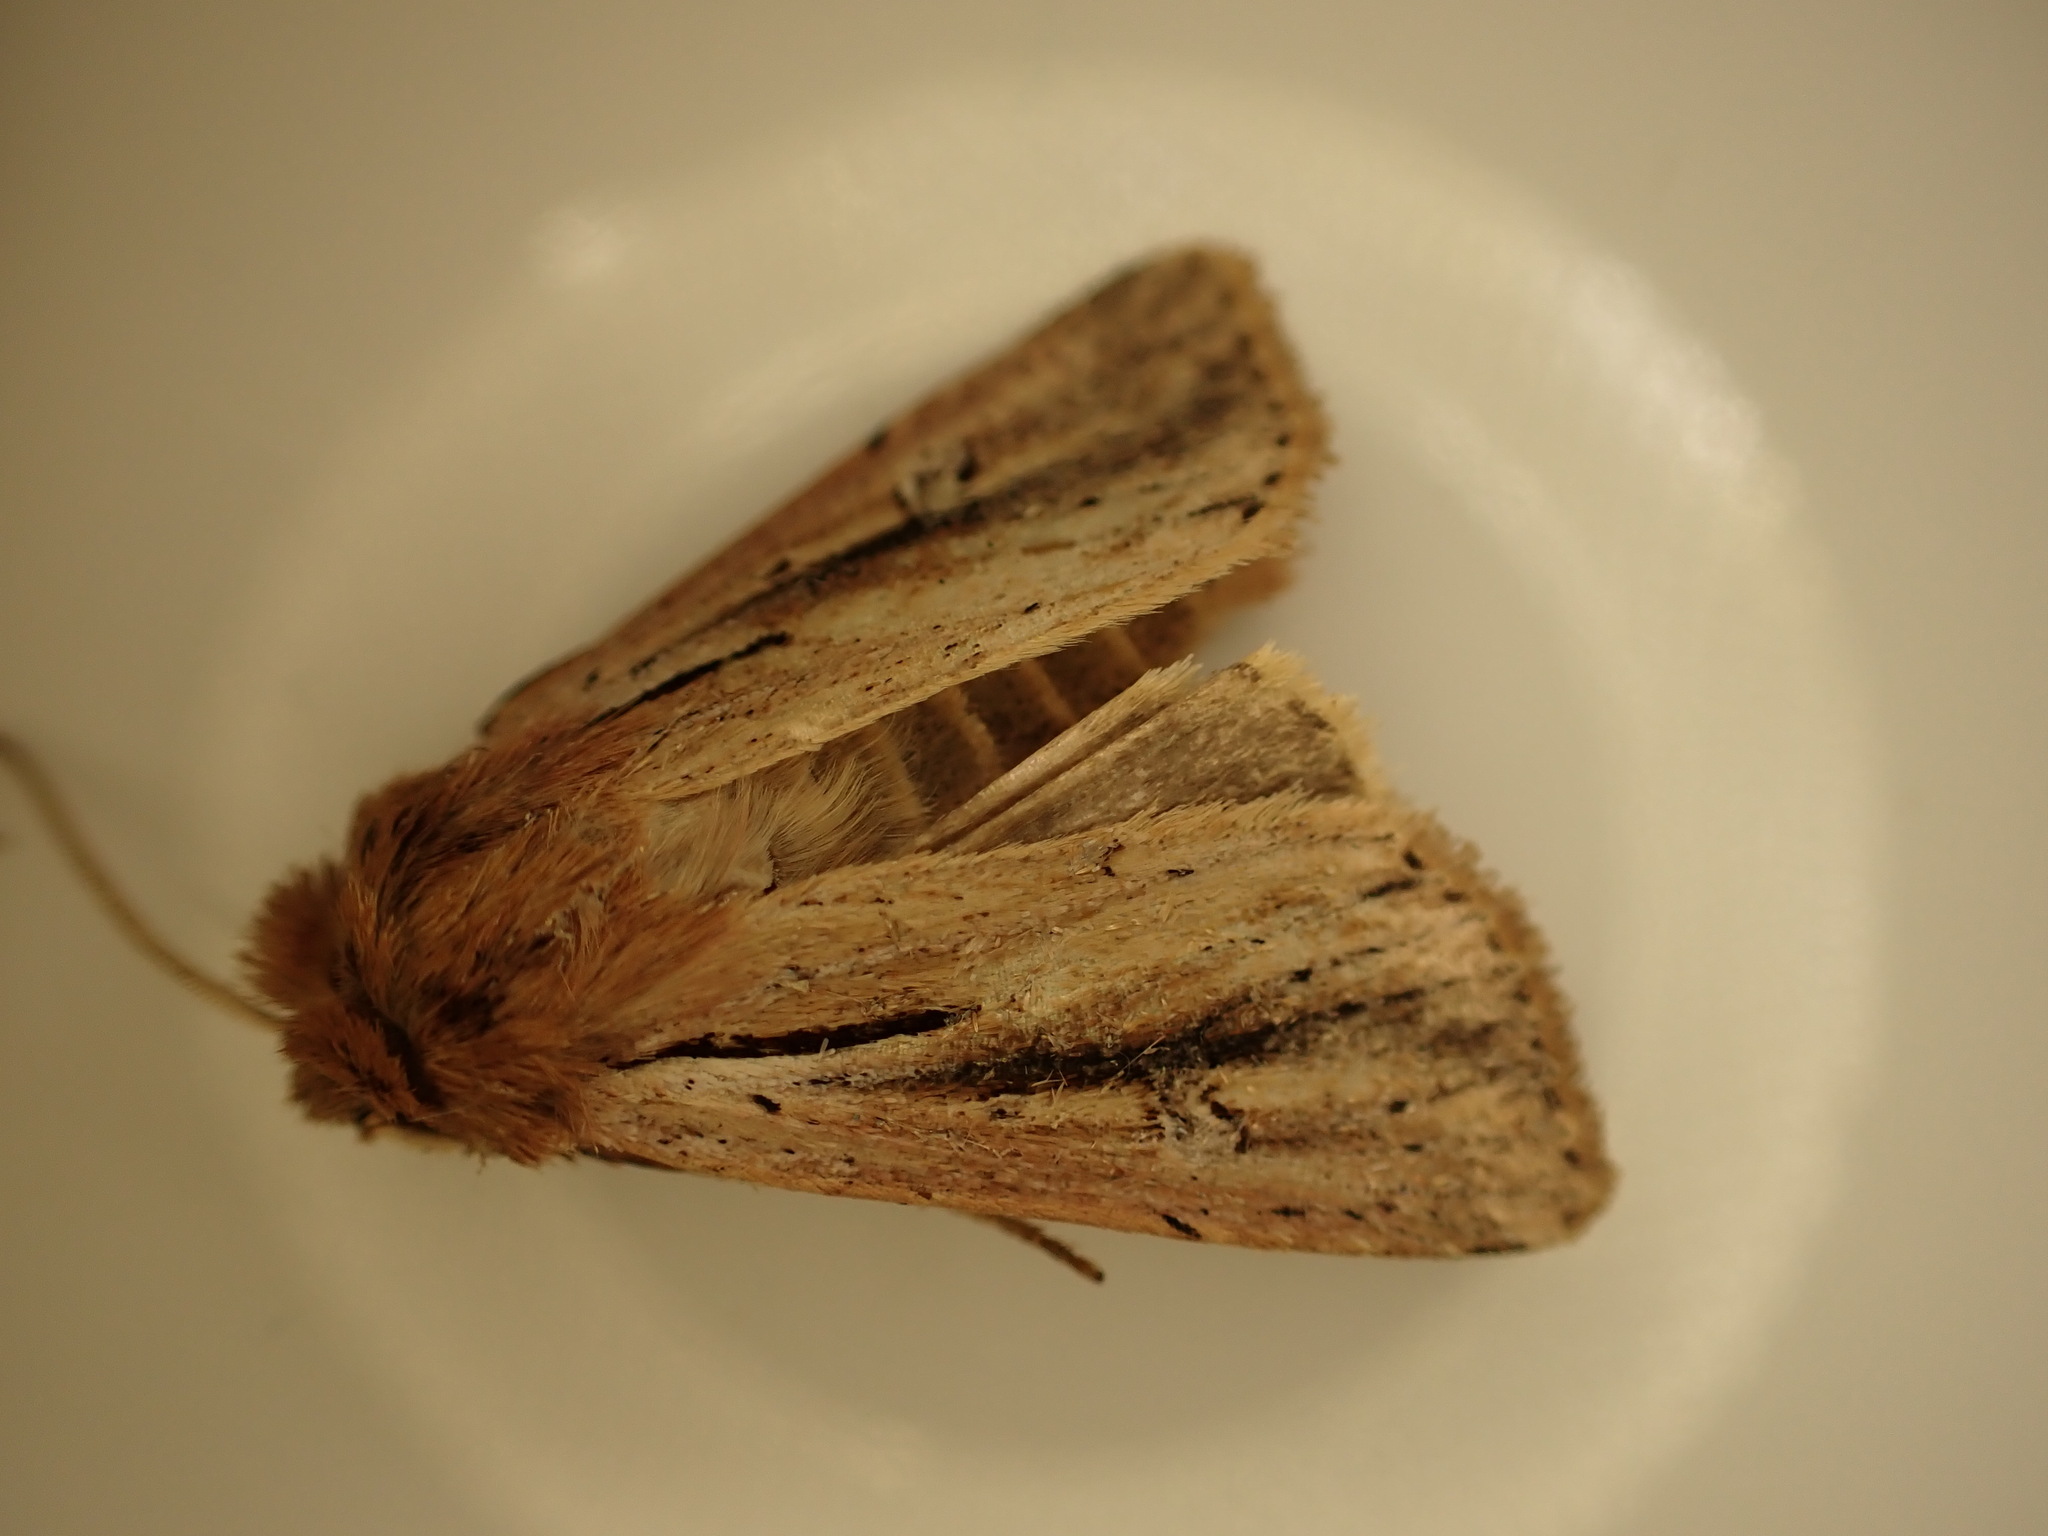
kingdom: Animalia
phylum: Arthropoda
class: Insecta
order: Lepidoptera
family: Noctuidae
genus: Ichneutica
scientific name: Ichneutica propria
